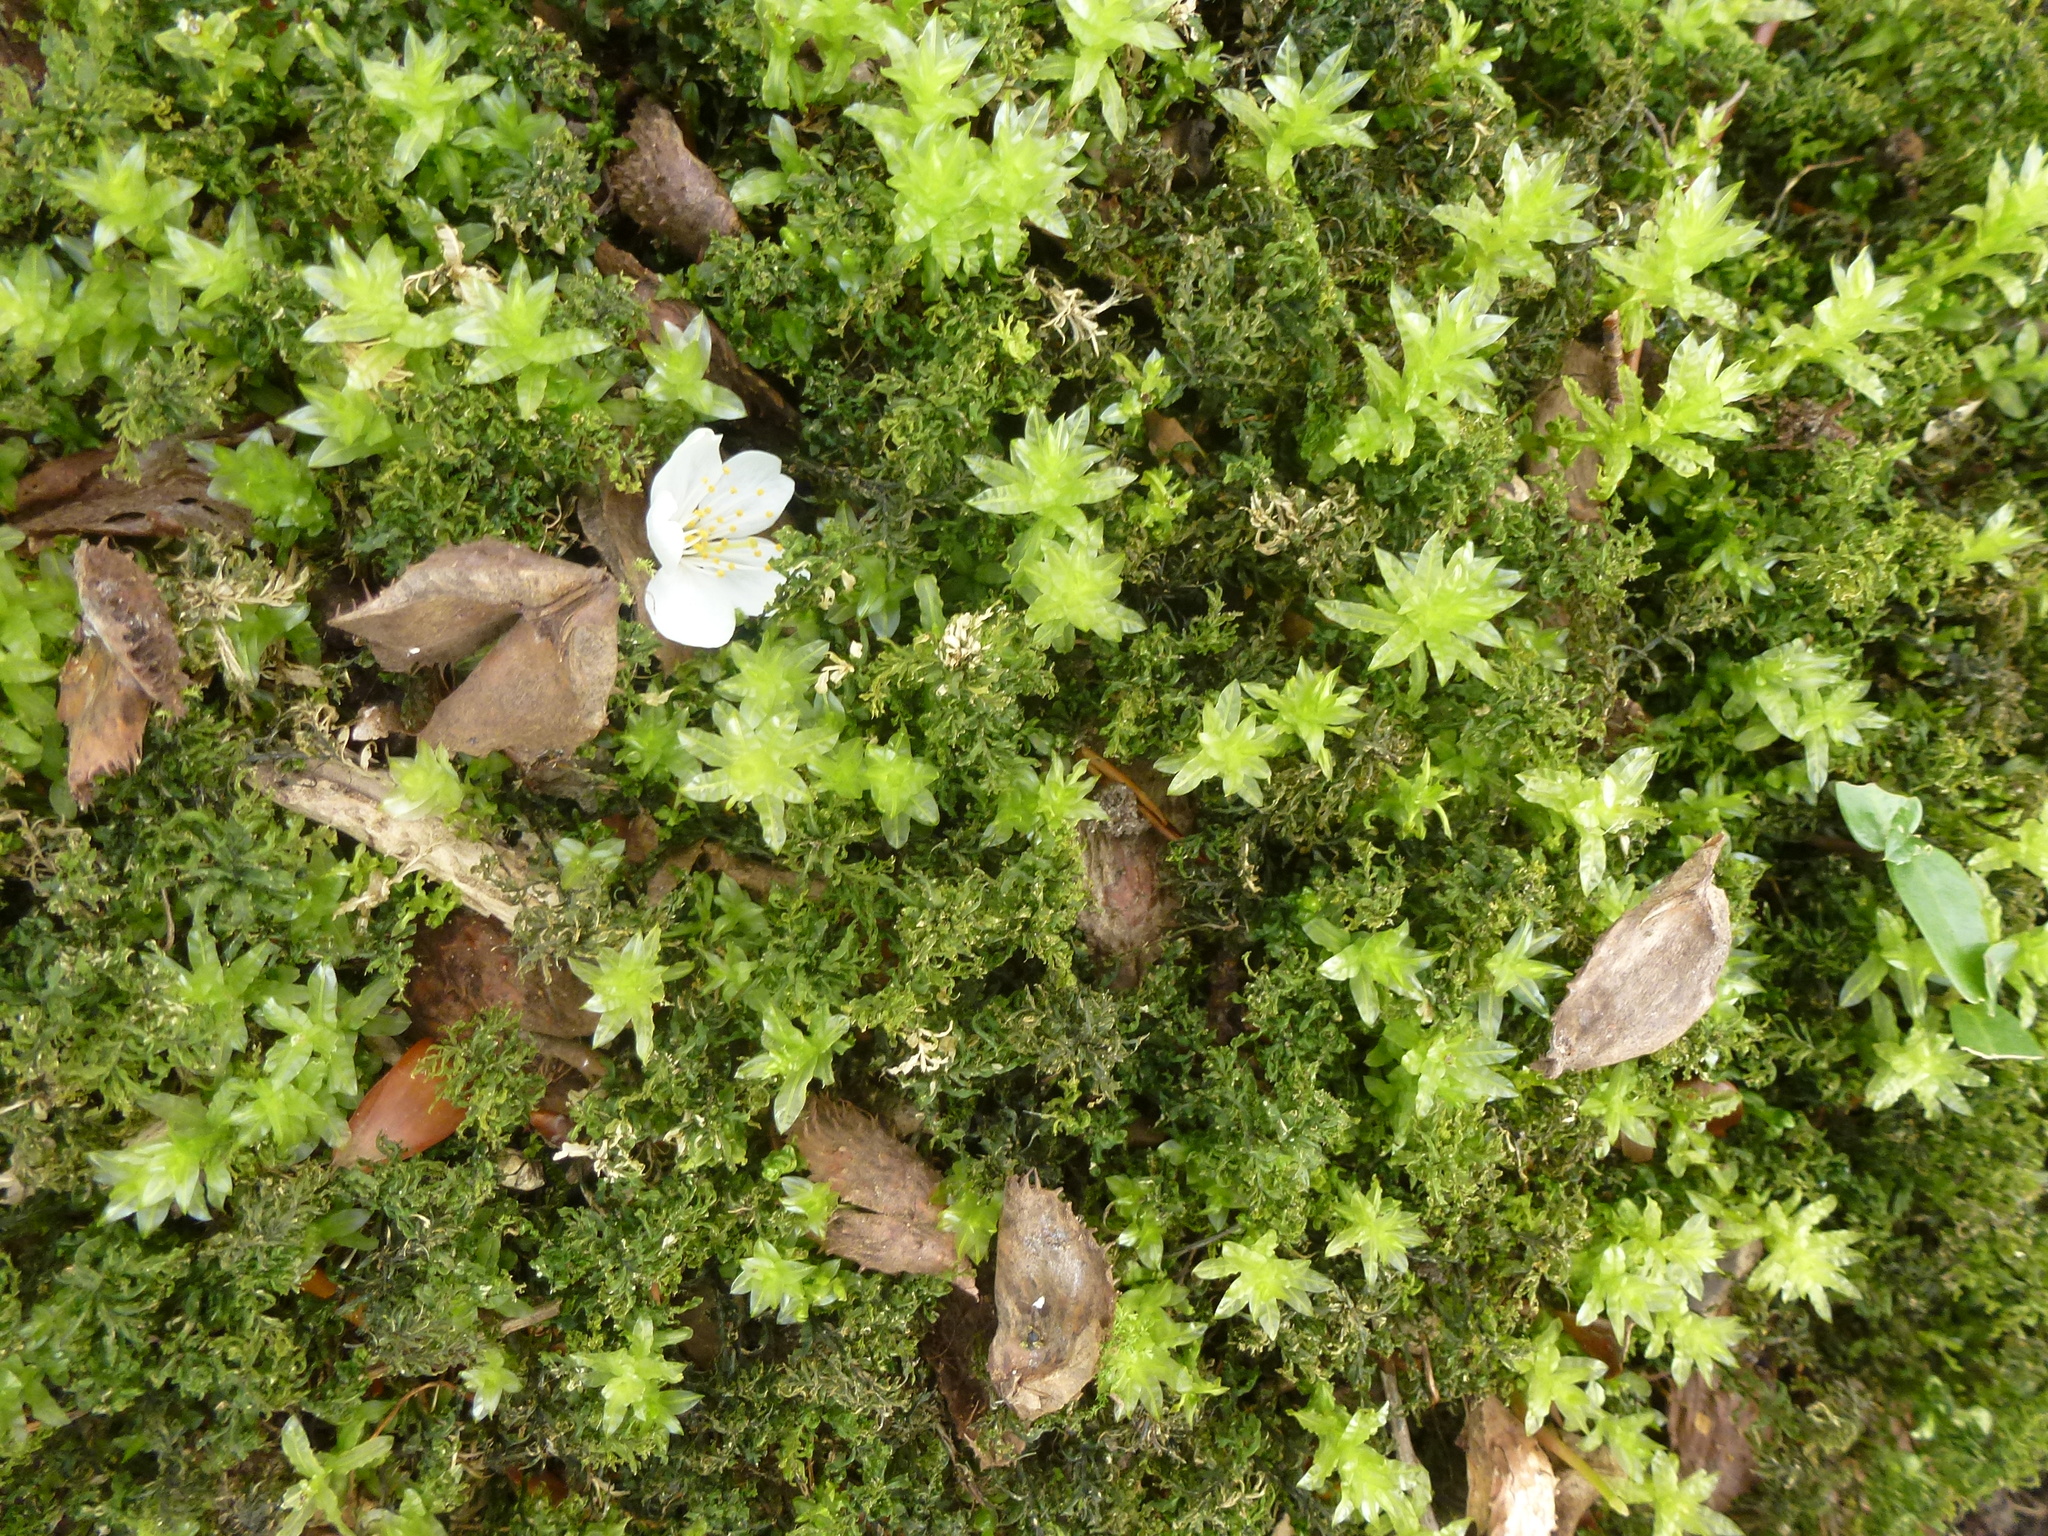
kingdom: Plantae
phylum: Bryophyta
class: Bryopsida
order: Bryales
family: Mniaceae
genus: Plagiomnium
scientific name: Plagiomnium undulatum
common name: Hart's-tongue thyme-moss
